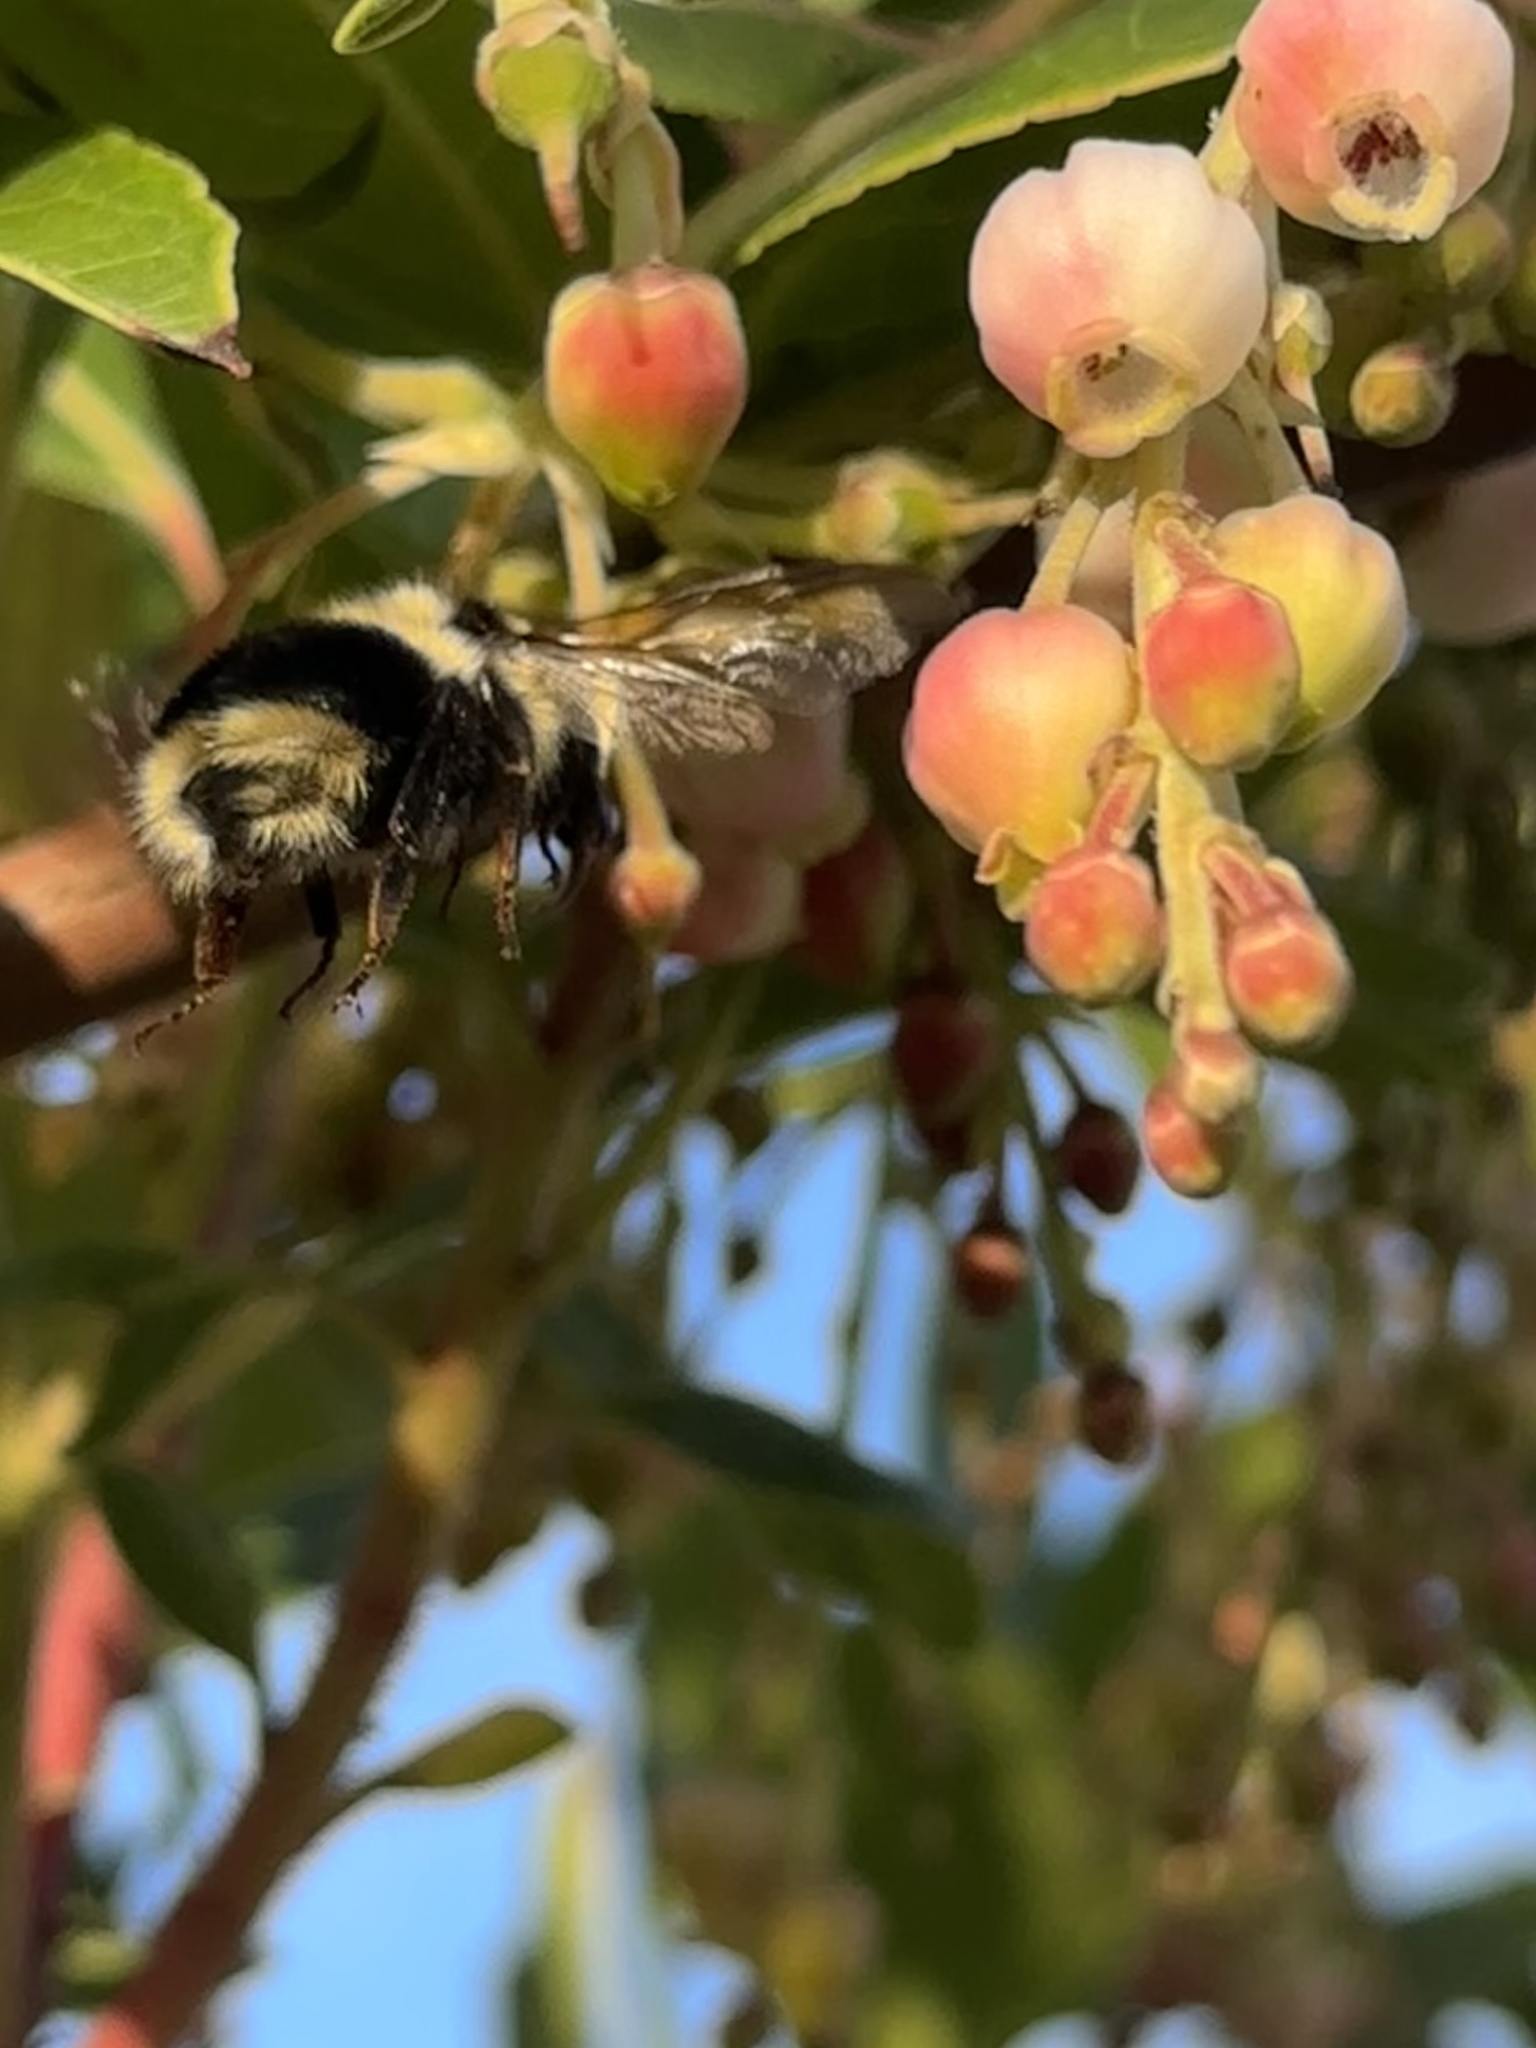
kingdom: Animalia
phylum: Arthropoda
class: Insecta
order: Hymenoptera
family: Apidae
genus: Bombus
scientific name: Bombus melanopygus
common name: Black tail bumble bee
